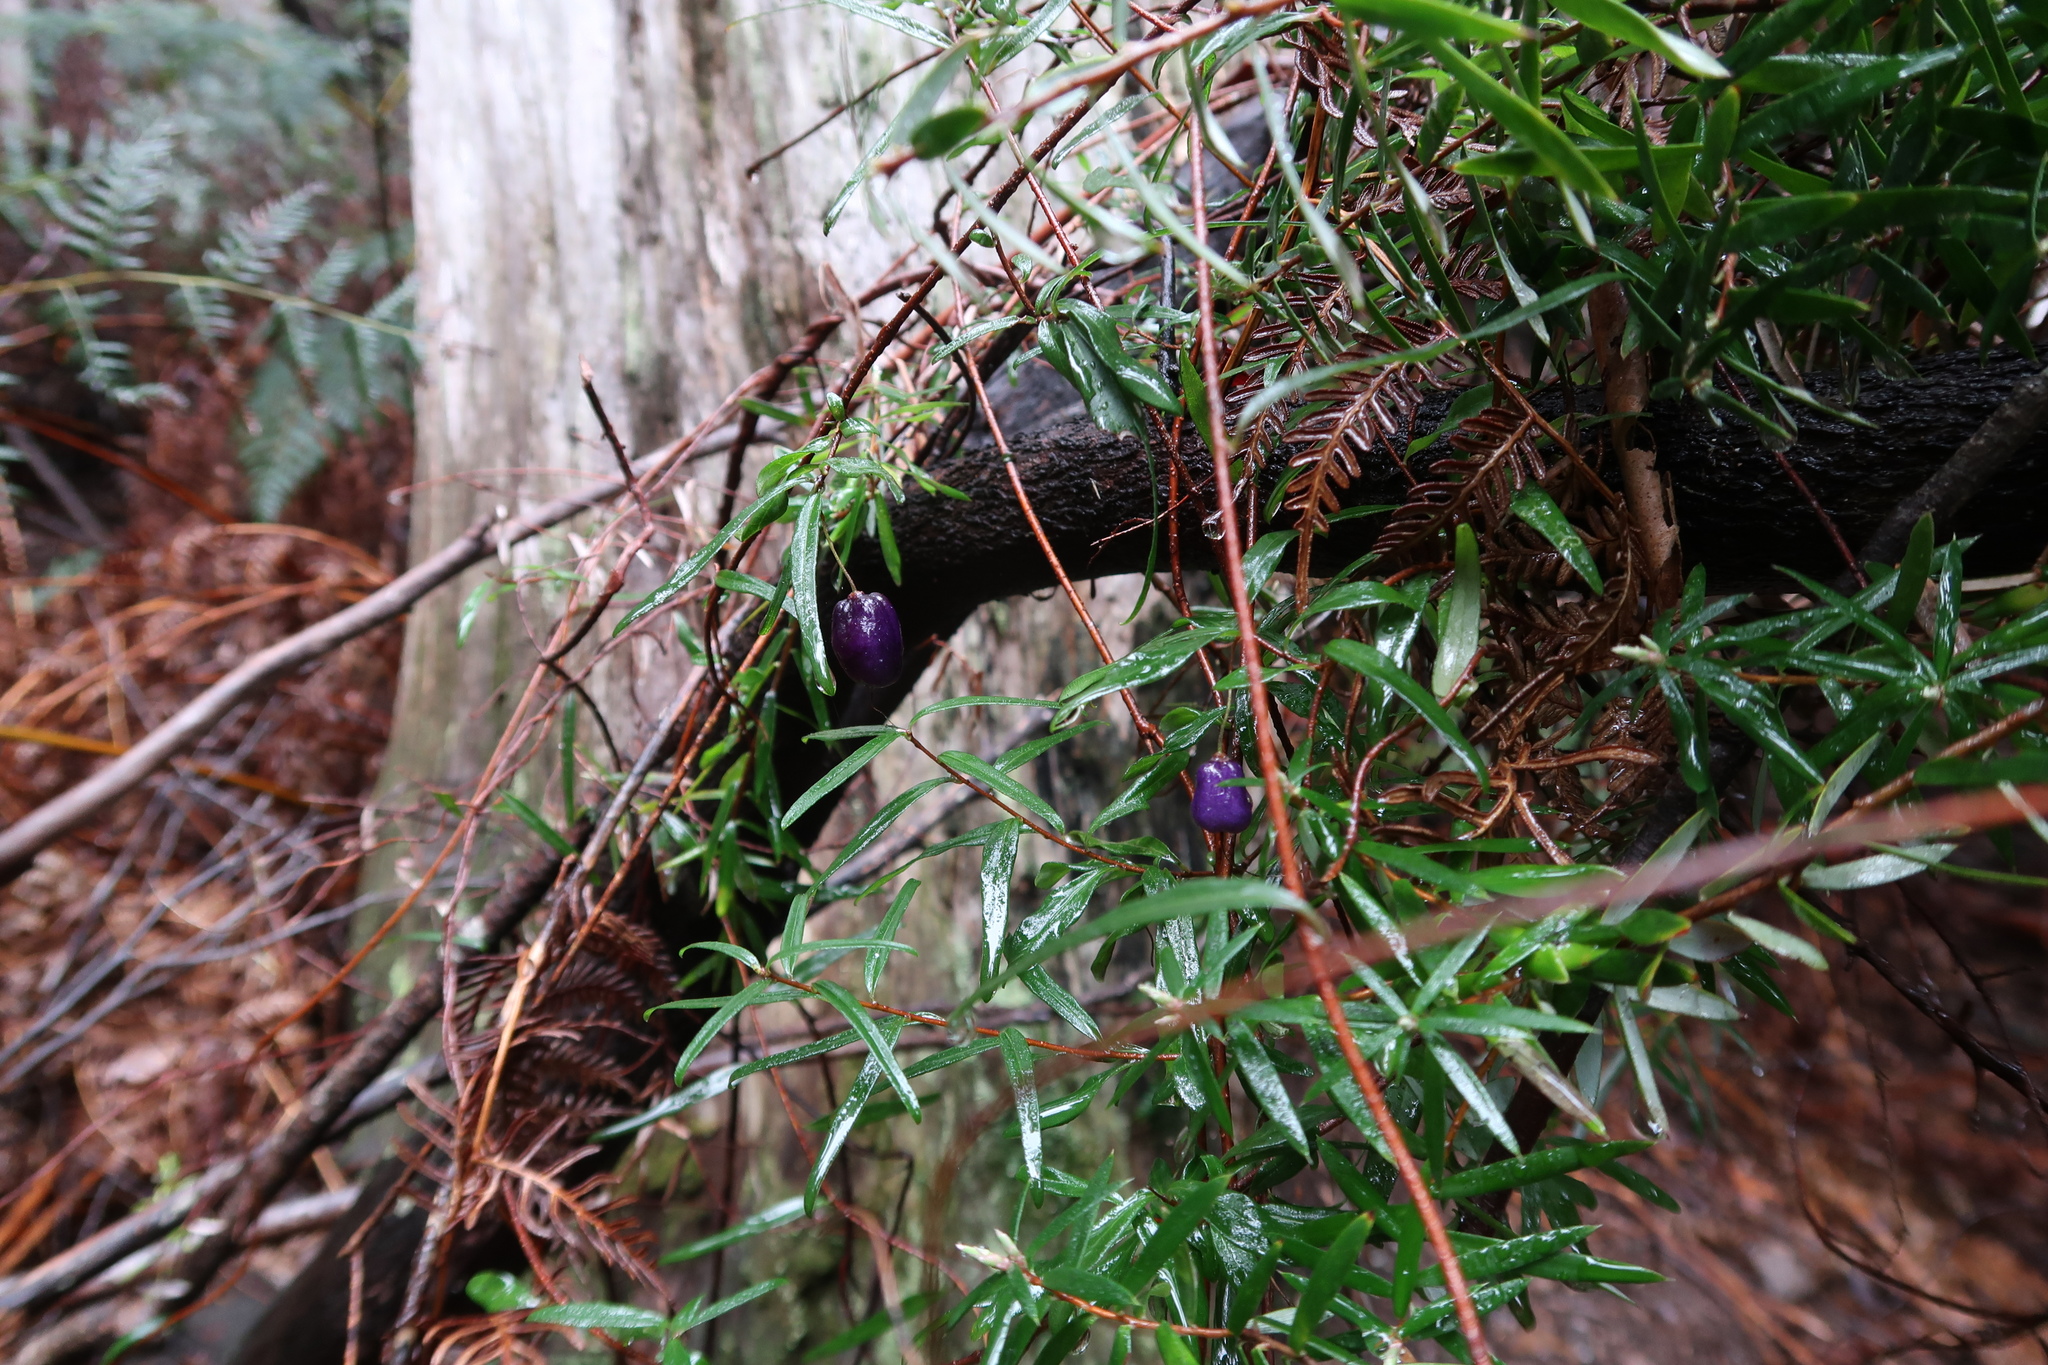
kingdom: Plantae
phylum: Tracheophyta
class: Magnoliopsida
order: Apiales
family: Pittosporaceae
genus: Billardiera
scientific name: Billardiera macrantha
